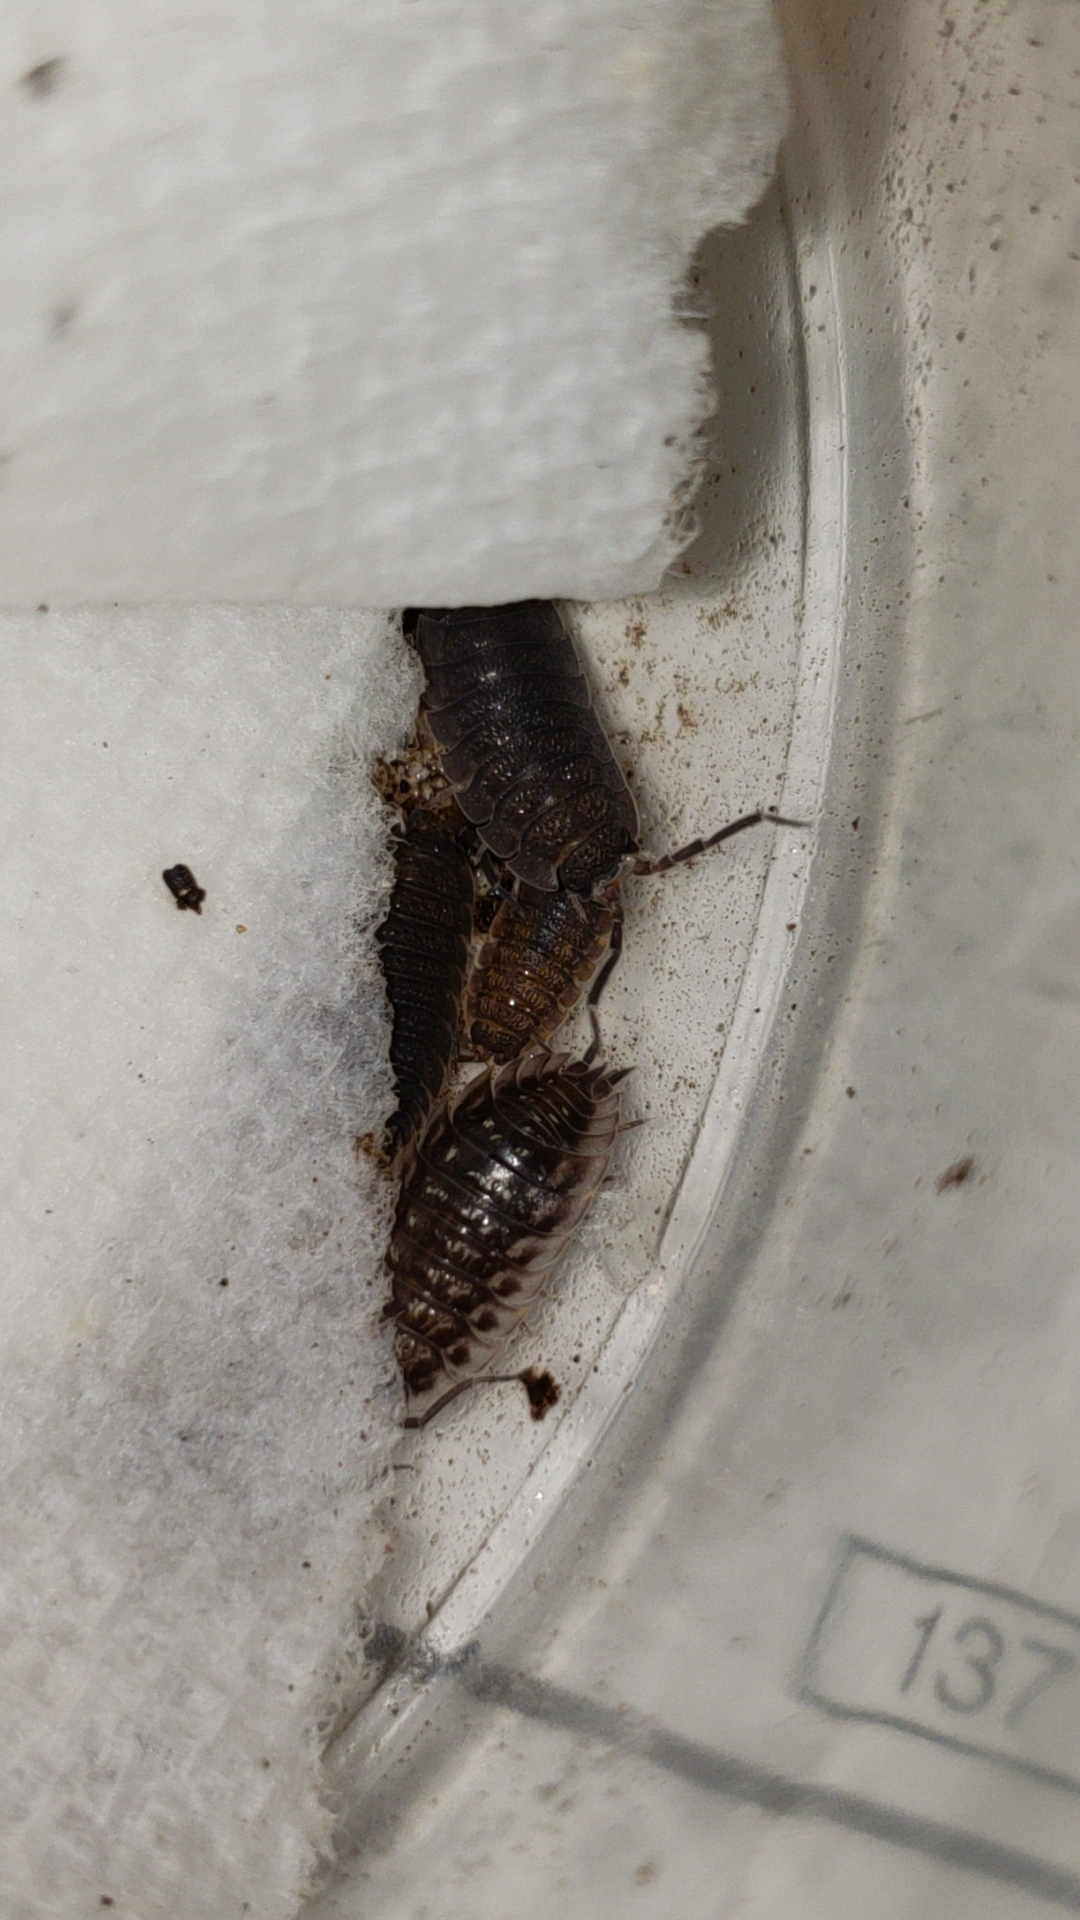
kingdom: Animalia
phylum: Arthropoda
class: Malacostraca
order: Isopoda
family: Oniscidae
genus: Oniscus
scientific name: Oniscus asellus
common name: Common shiny woodlouse
